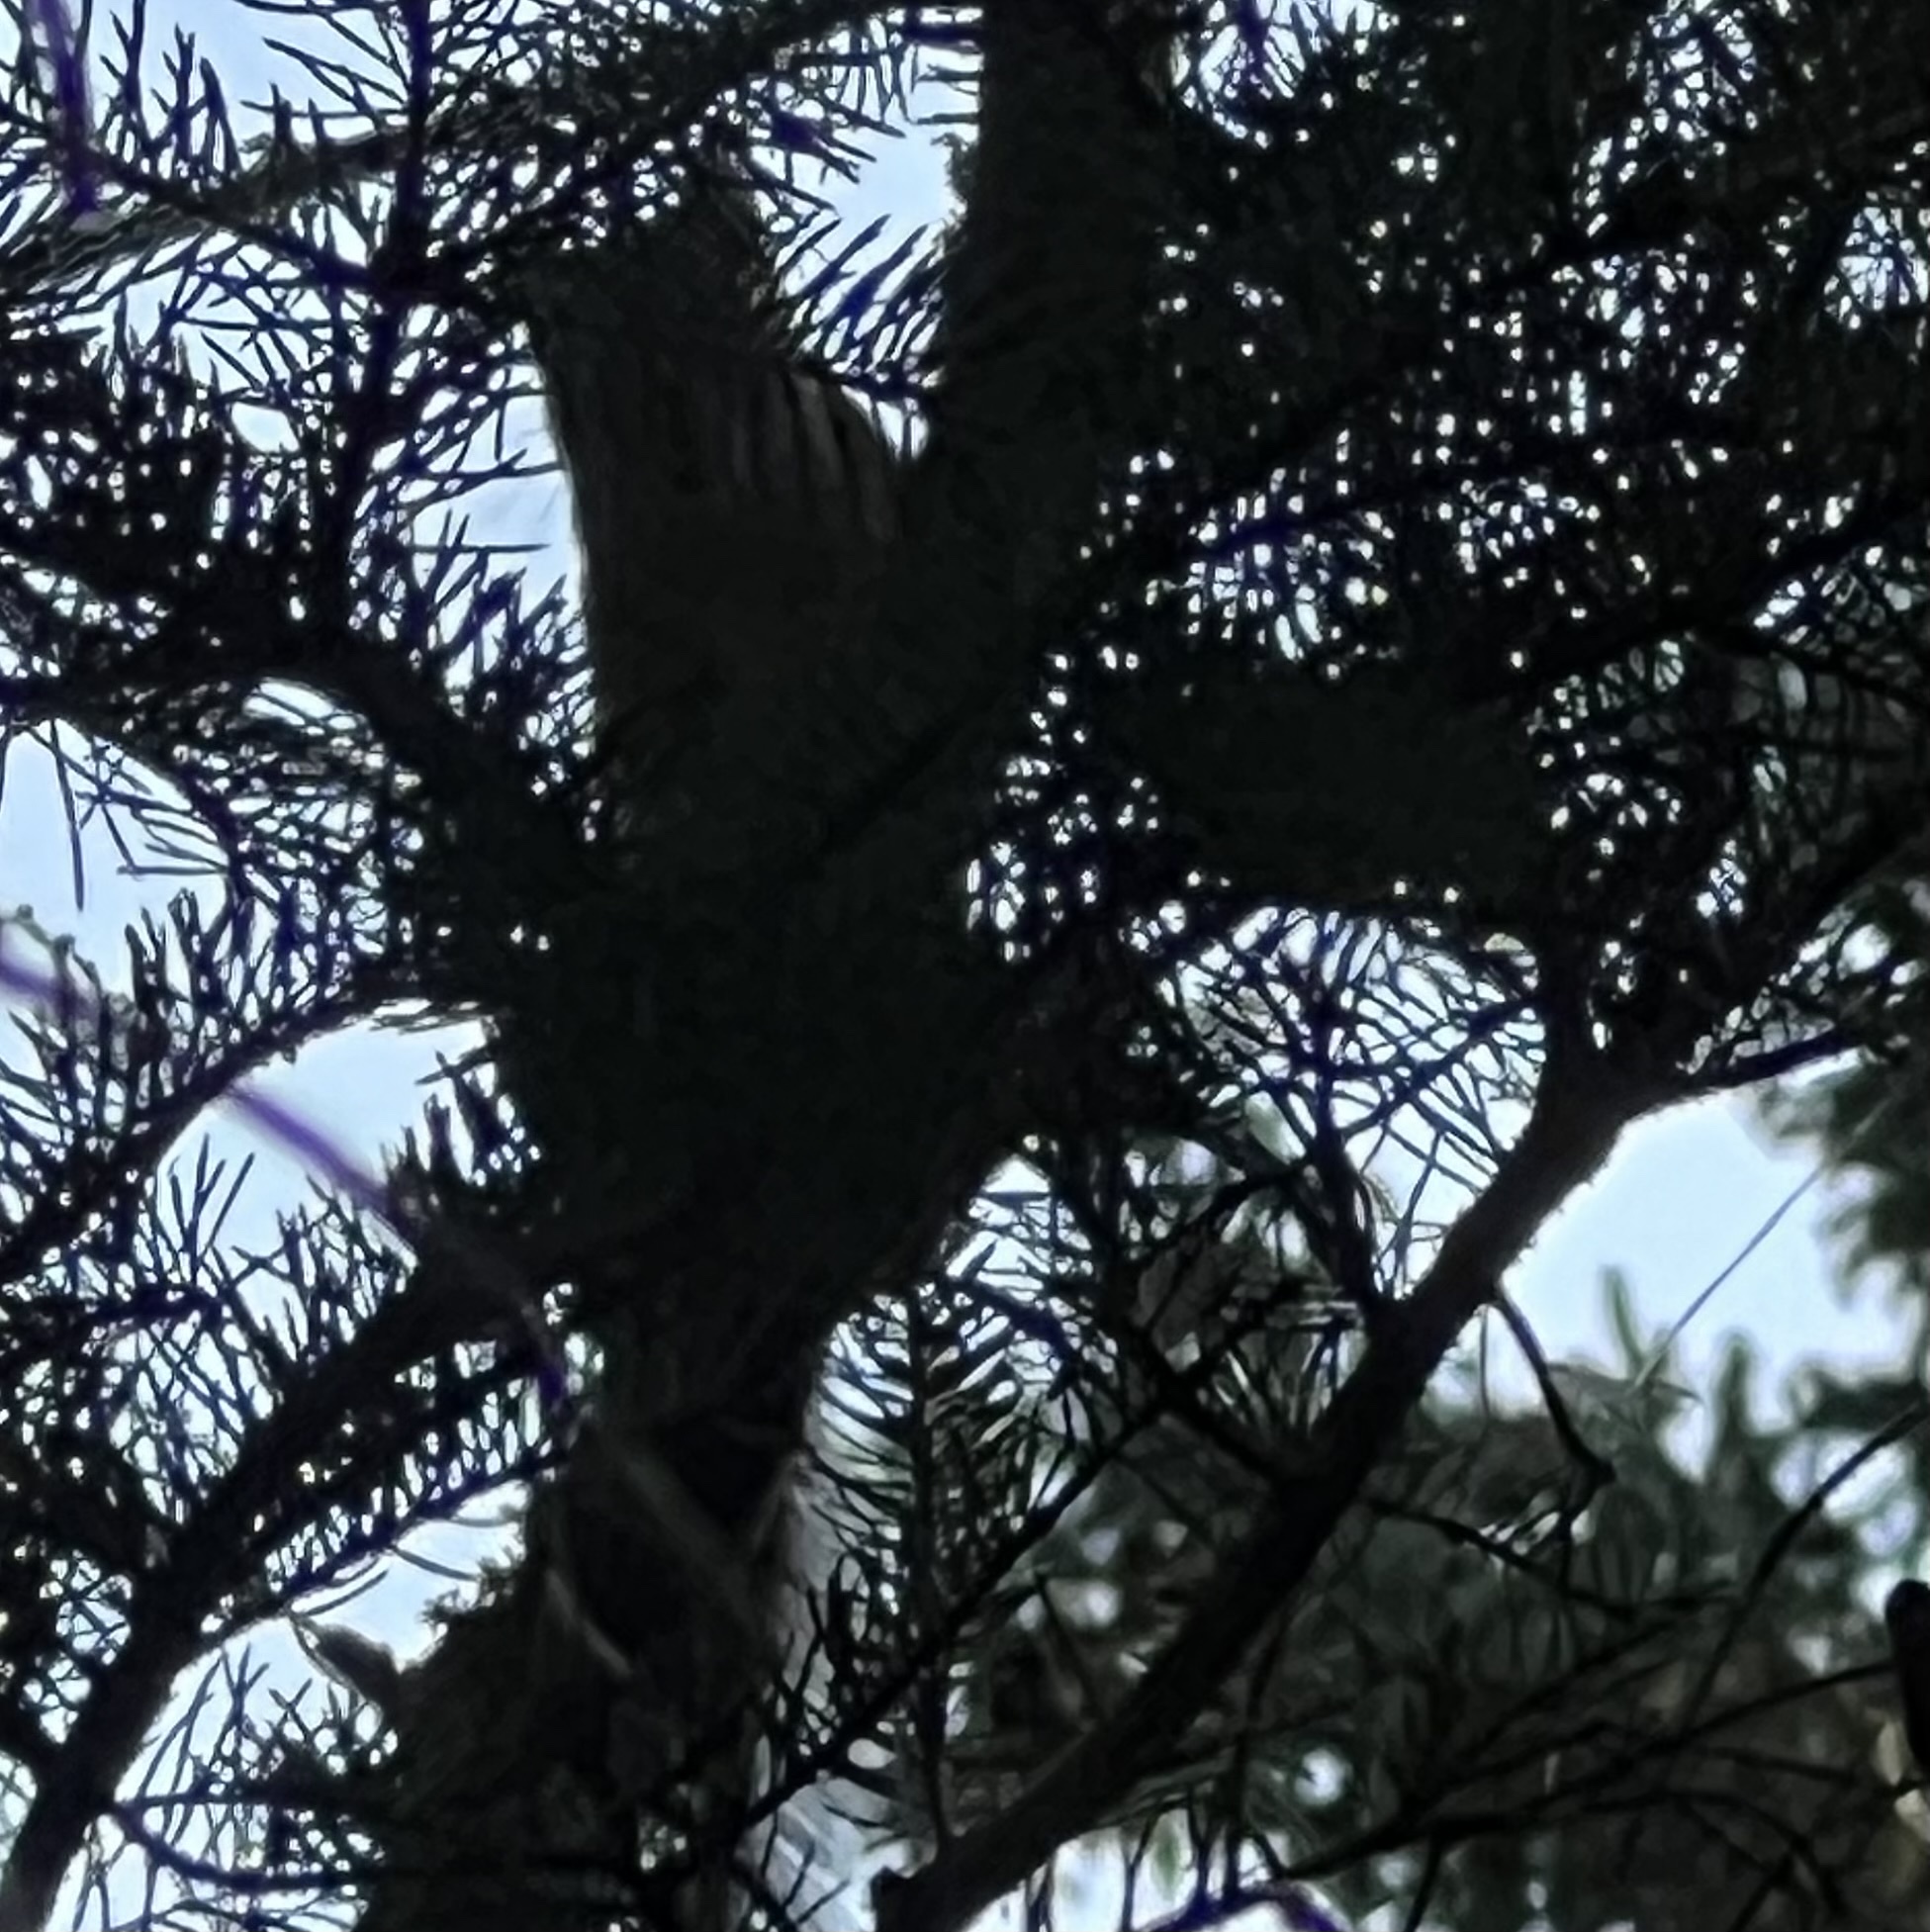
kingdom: Animalia
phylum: Chordata
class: Mammalia
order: Rodentia
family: Sciuridae
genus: Tamiasciurus
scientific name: Tamiasciurus hudsonicus
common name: Red squirrel
